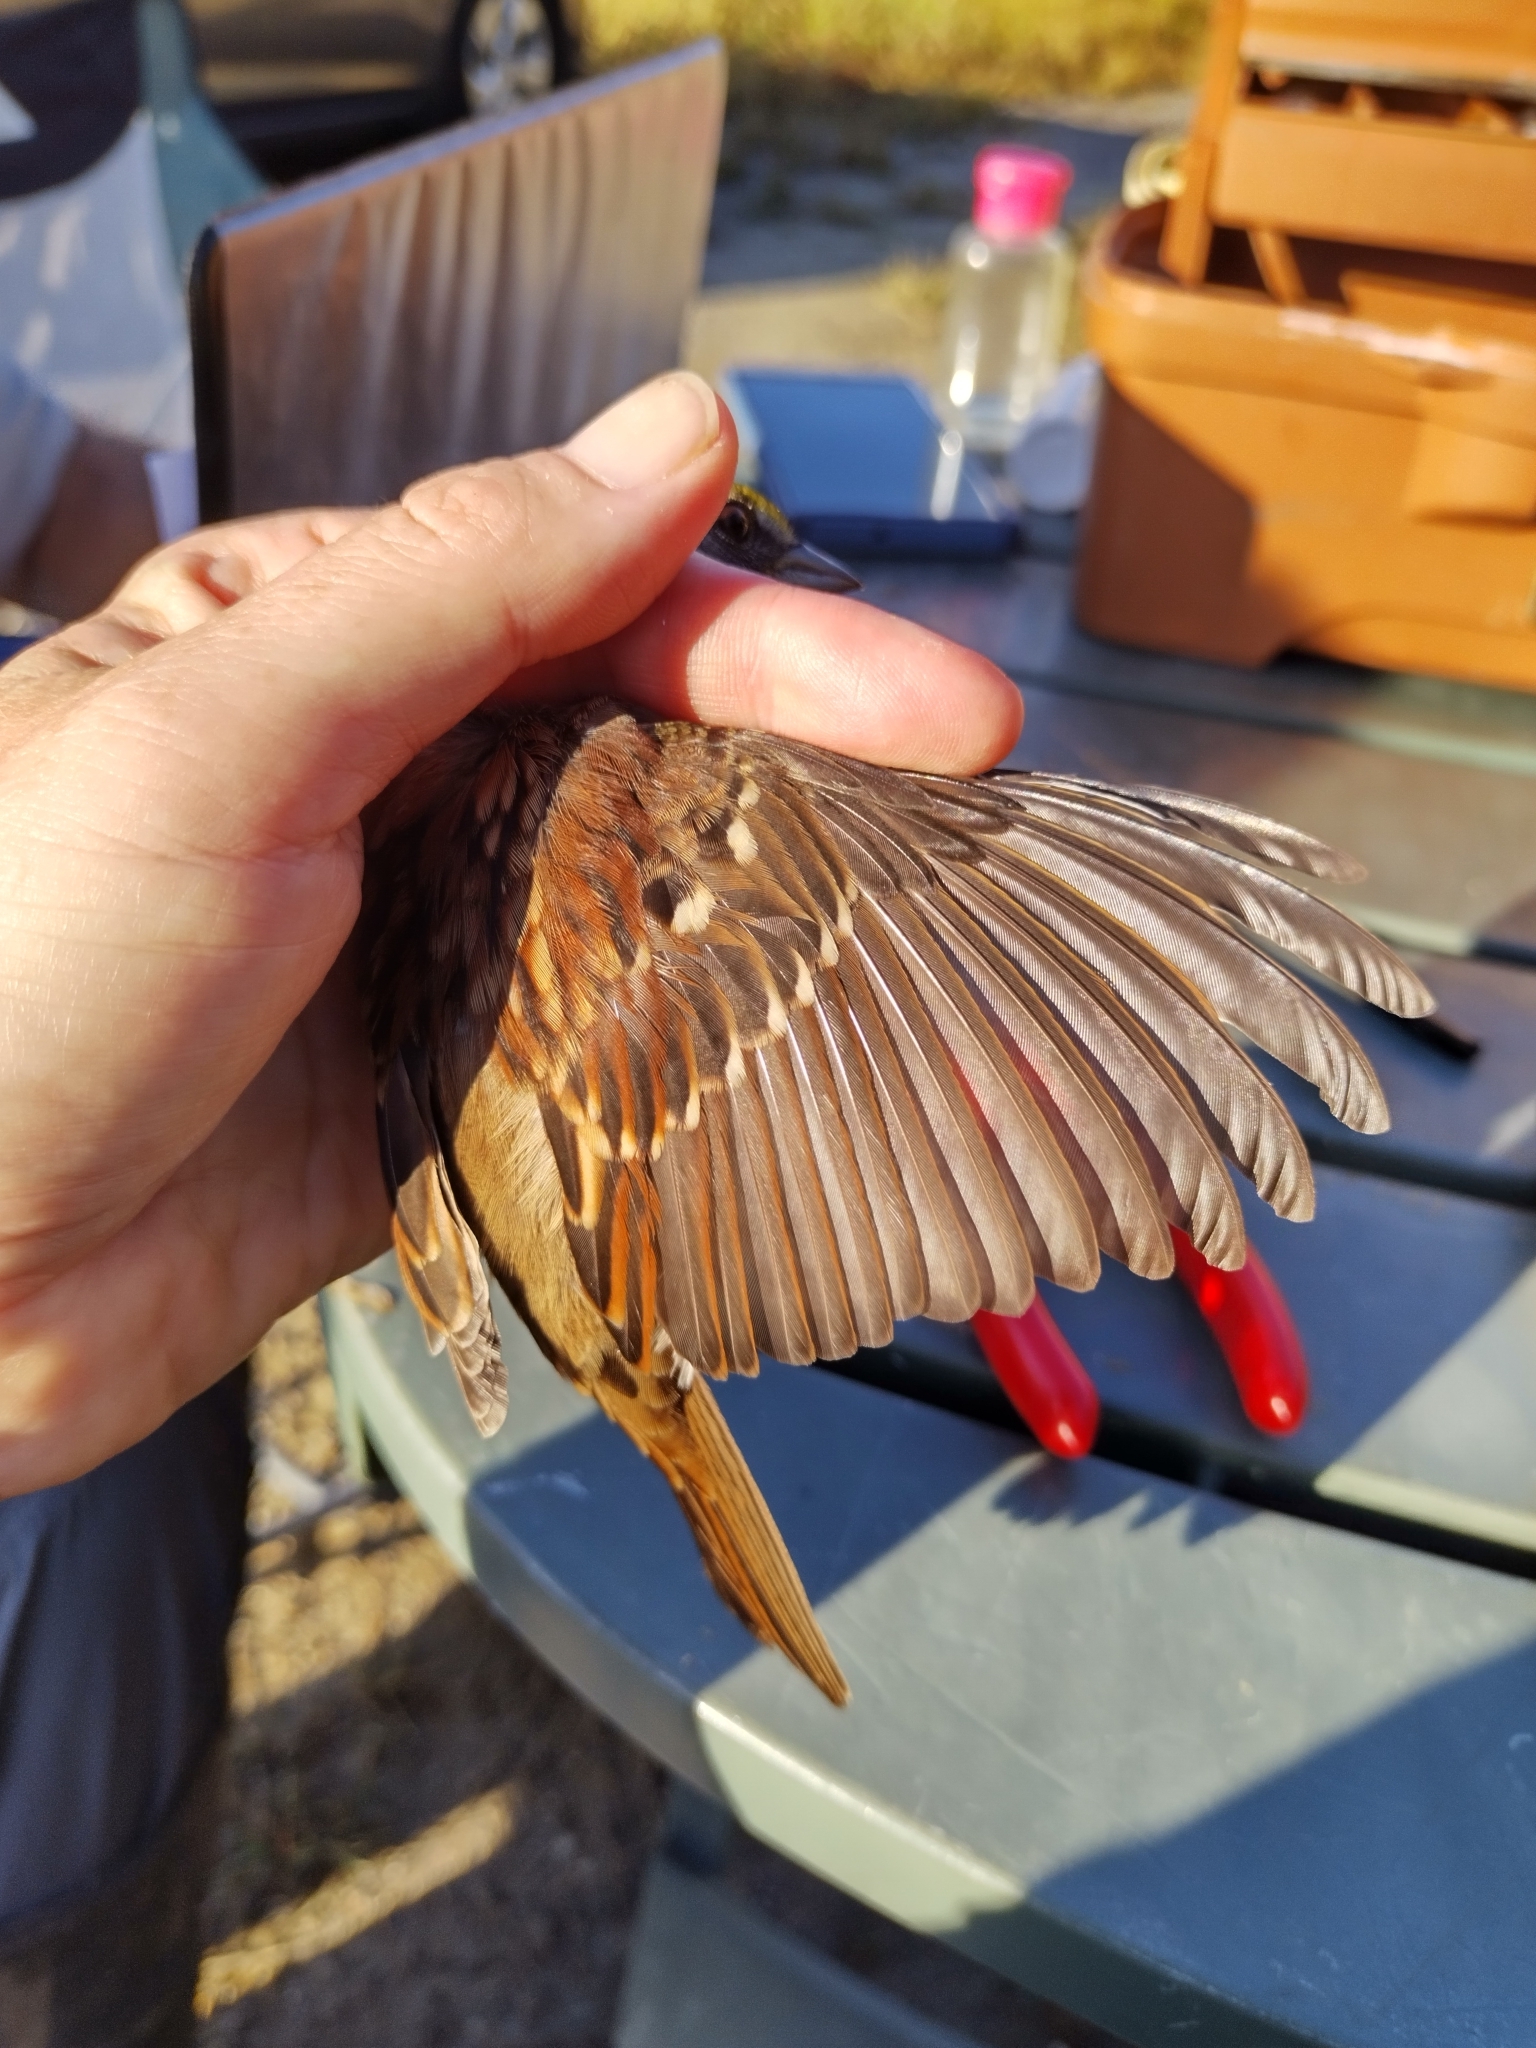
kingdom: Animalia
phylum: Chordata
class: Aves
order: Passeriformes
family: Passerellidae
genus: Zonotrichia
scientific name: Zonotrichia albicollis
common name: White-throated sparrow
